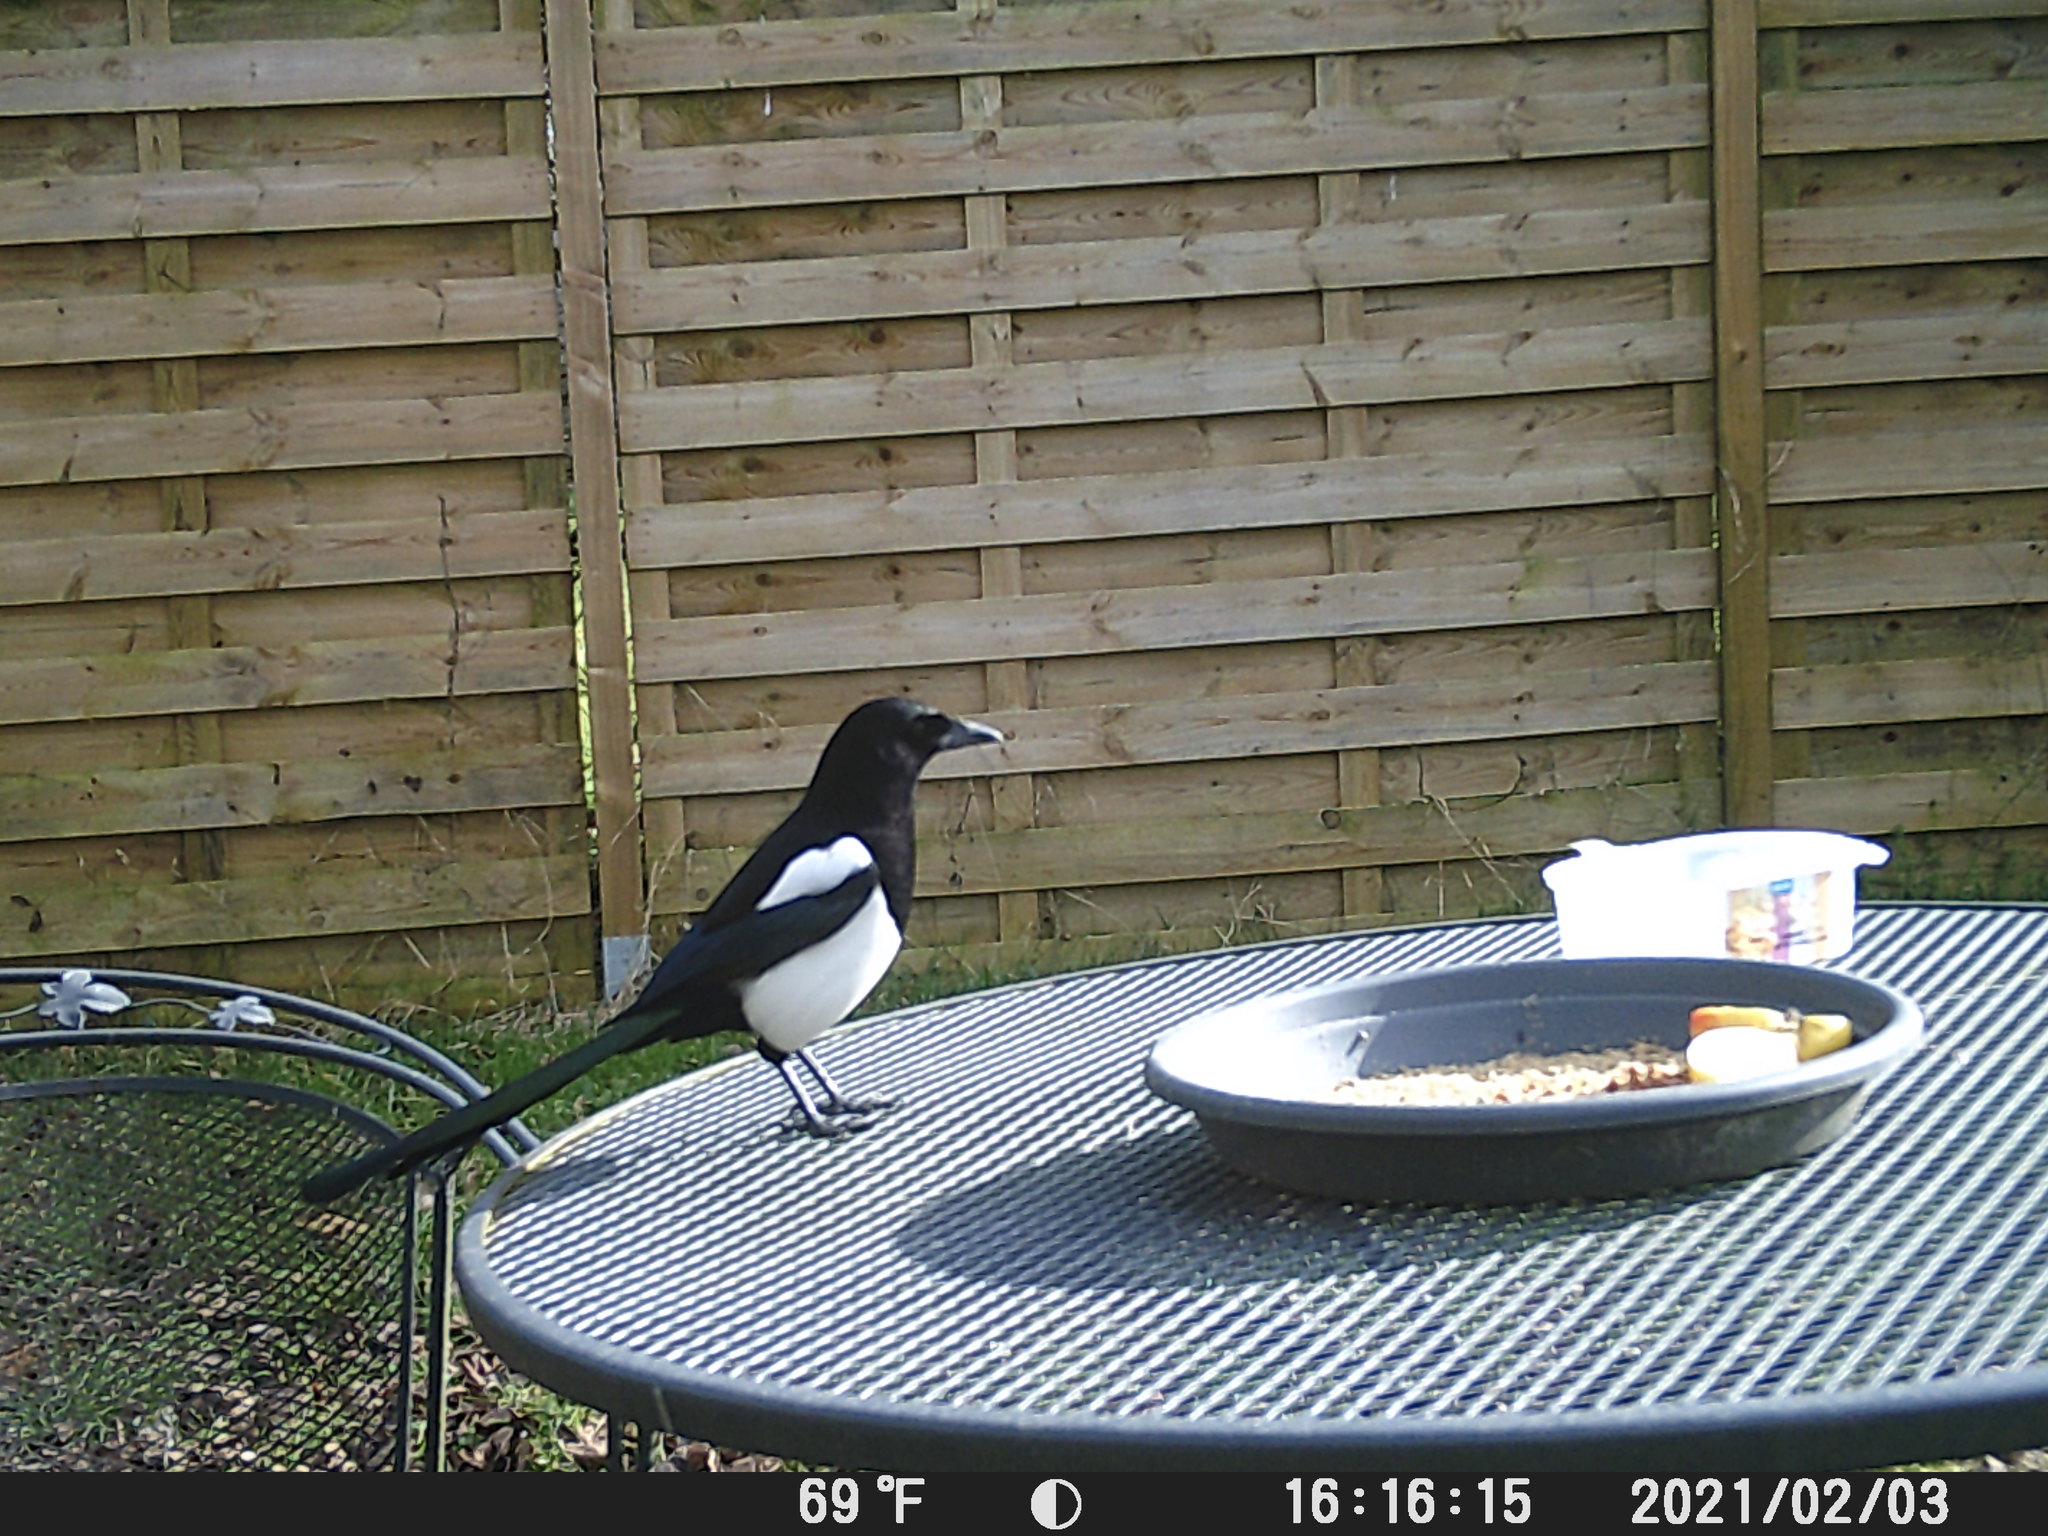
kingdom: Animalia
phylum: Chordata
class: Aves
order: Passeriformes
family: Corvidae
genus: Pica
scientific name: Pica pica
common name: Eurasian magpie
